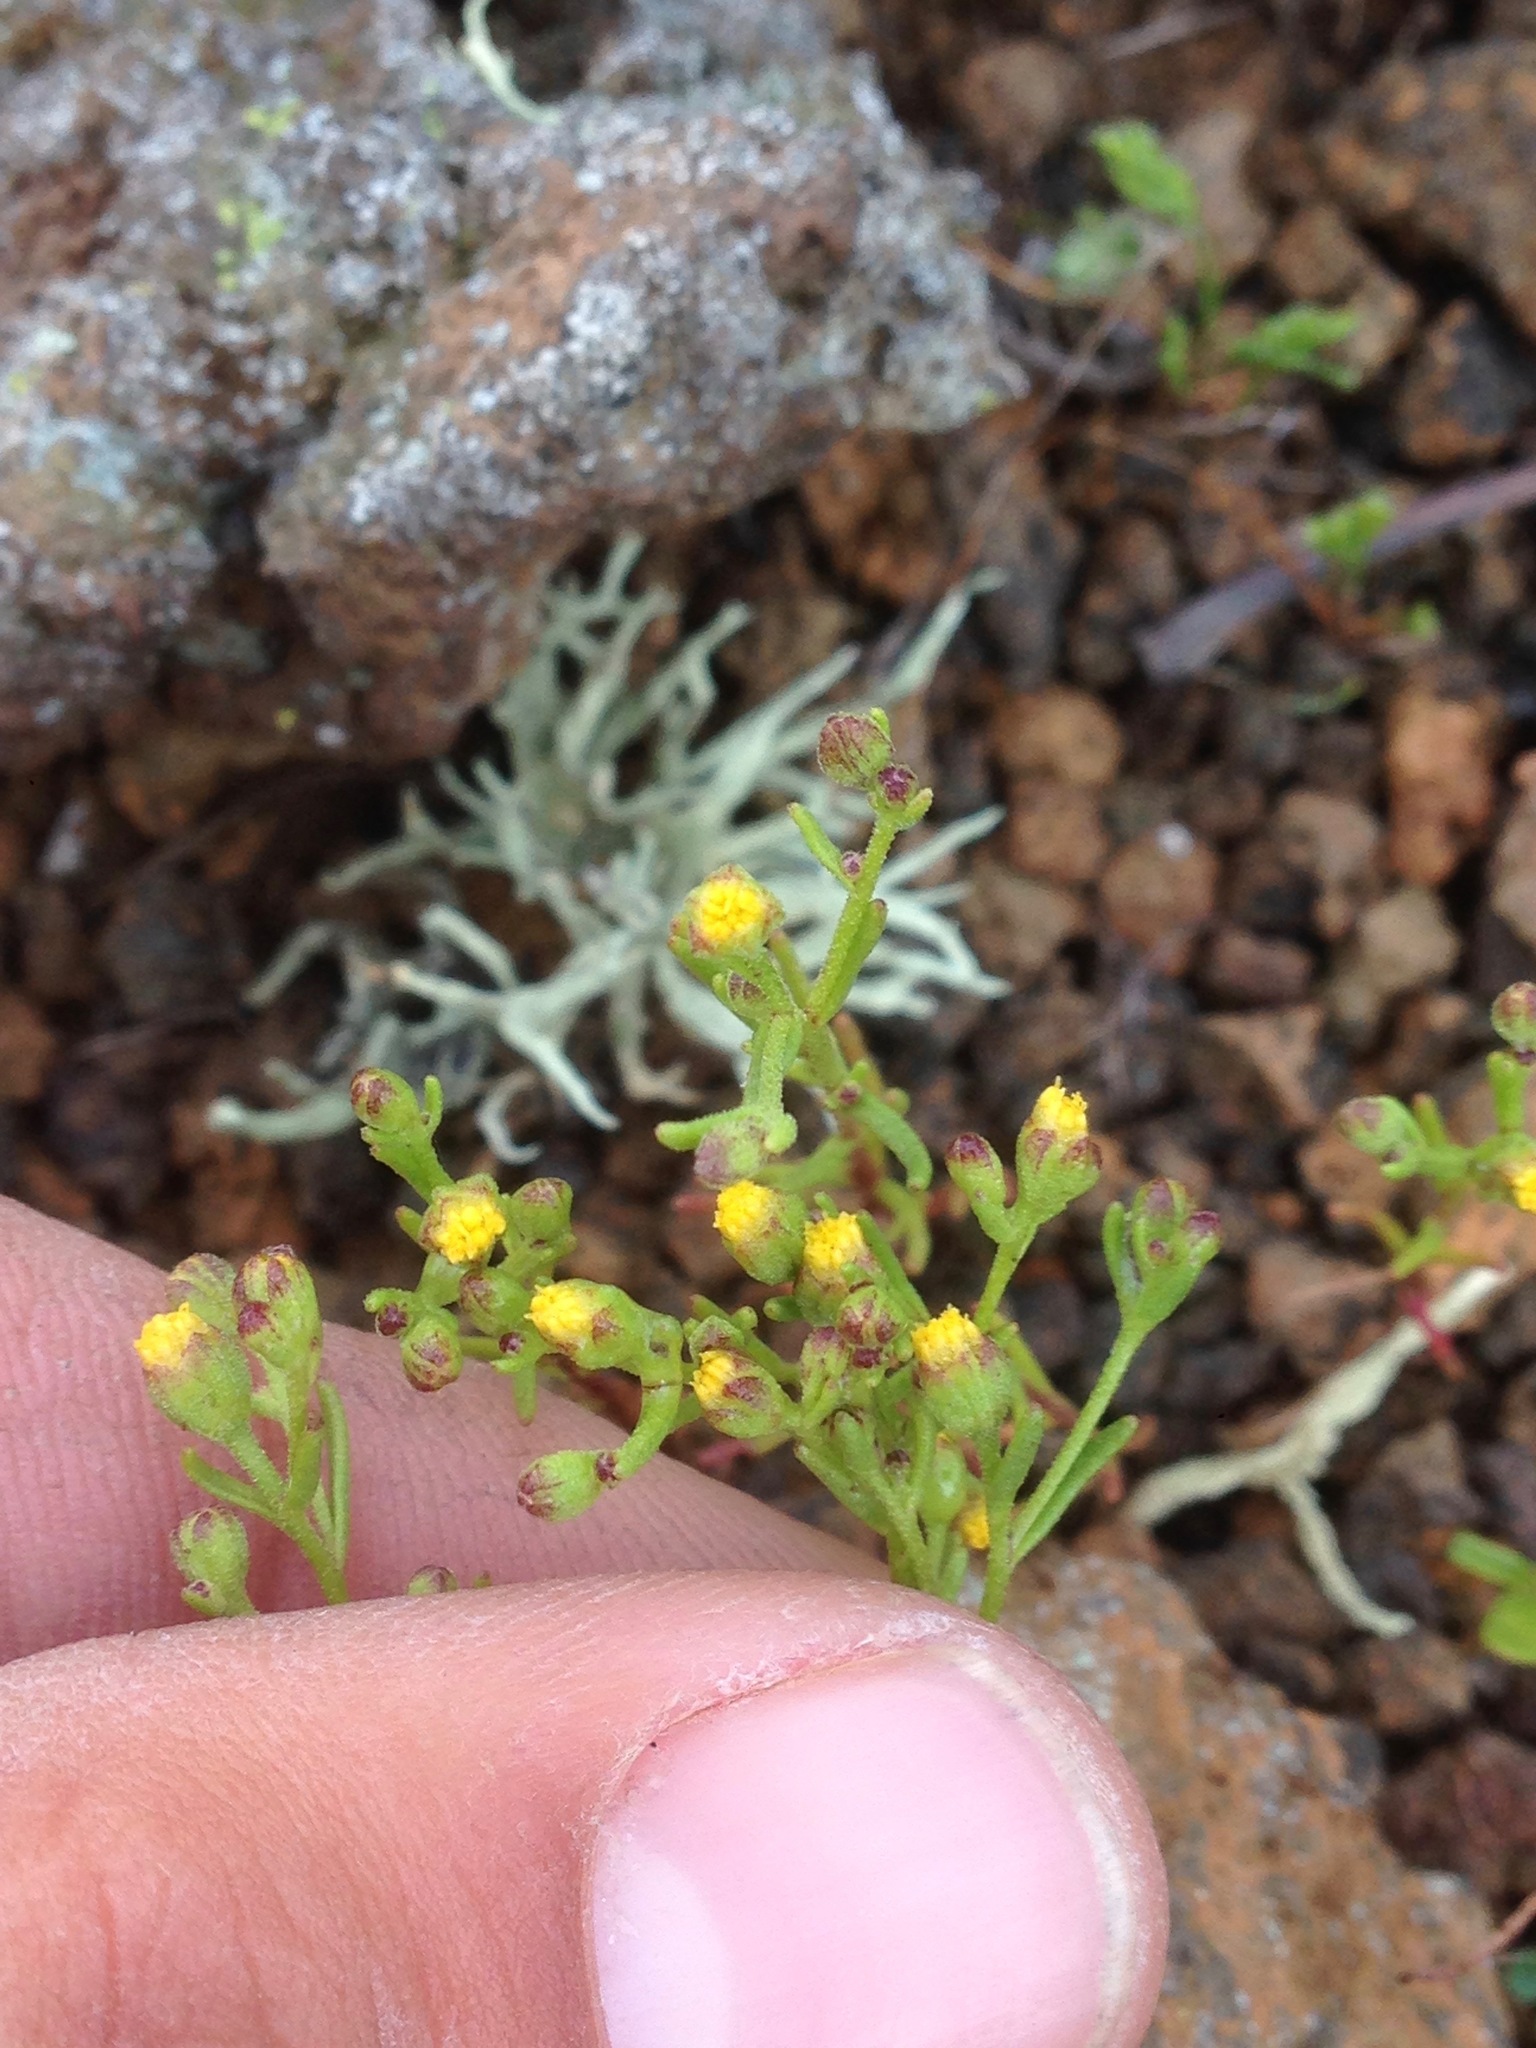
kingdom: Plantae
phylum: Tracheophyta
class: Magnoliopsida
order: Asterales
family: Asteraceae
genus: Amblyopappus
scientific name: Amblyopappus pusillus
